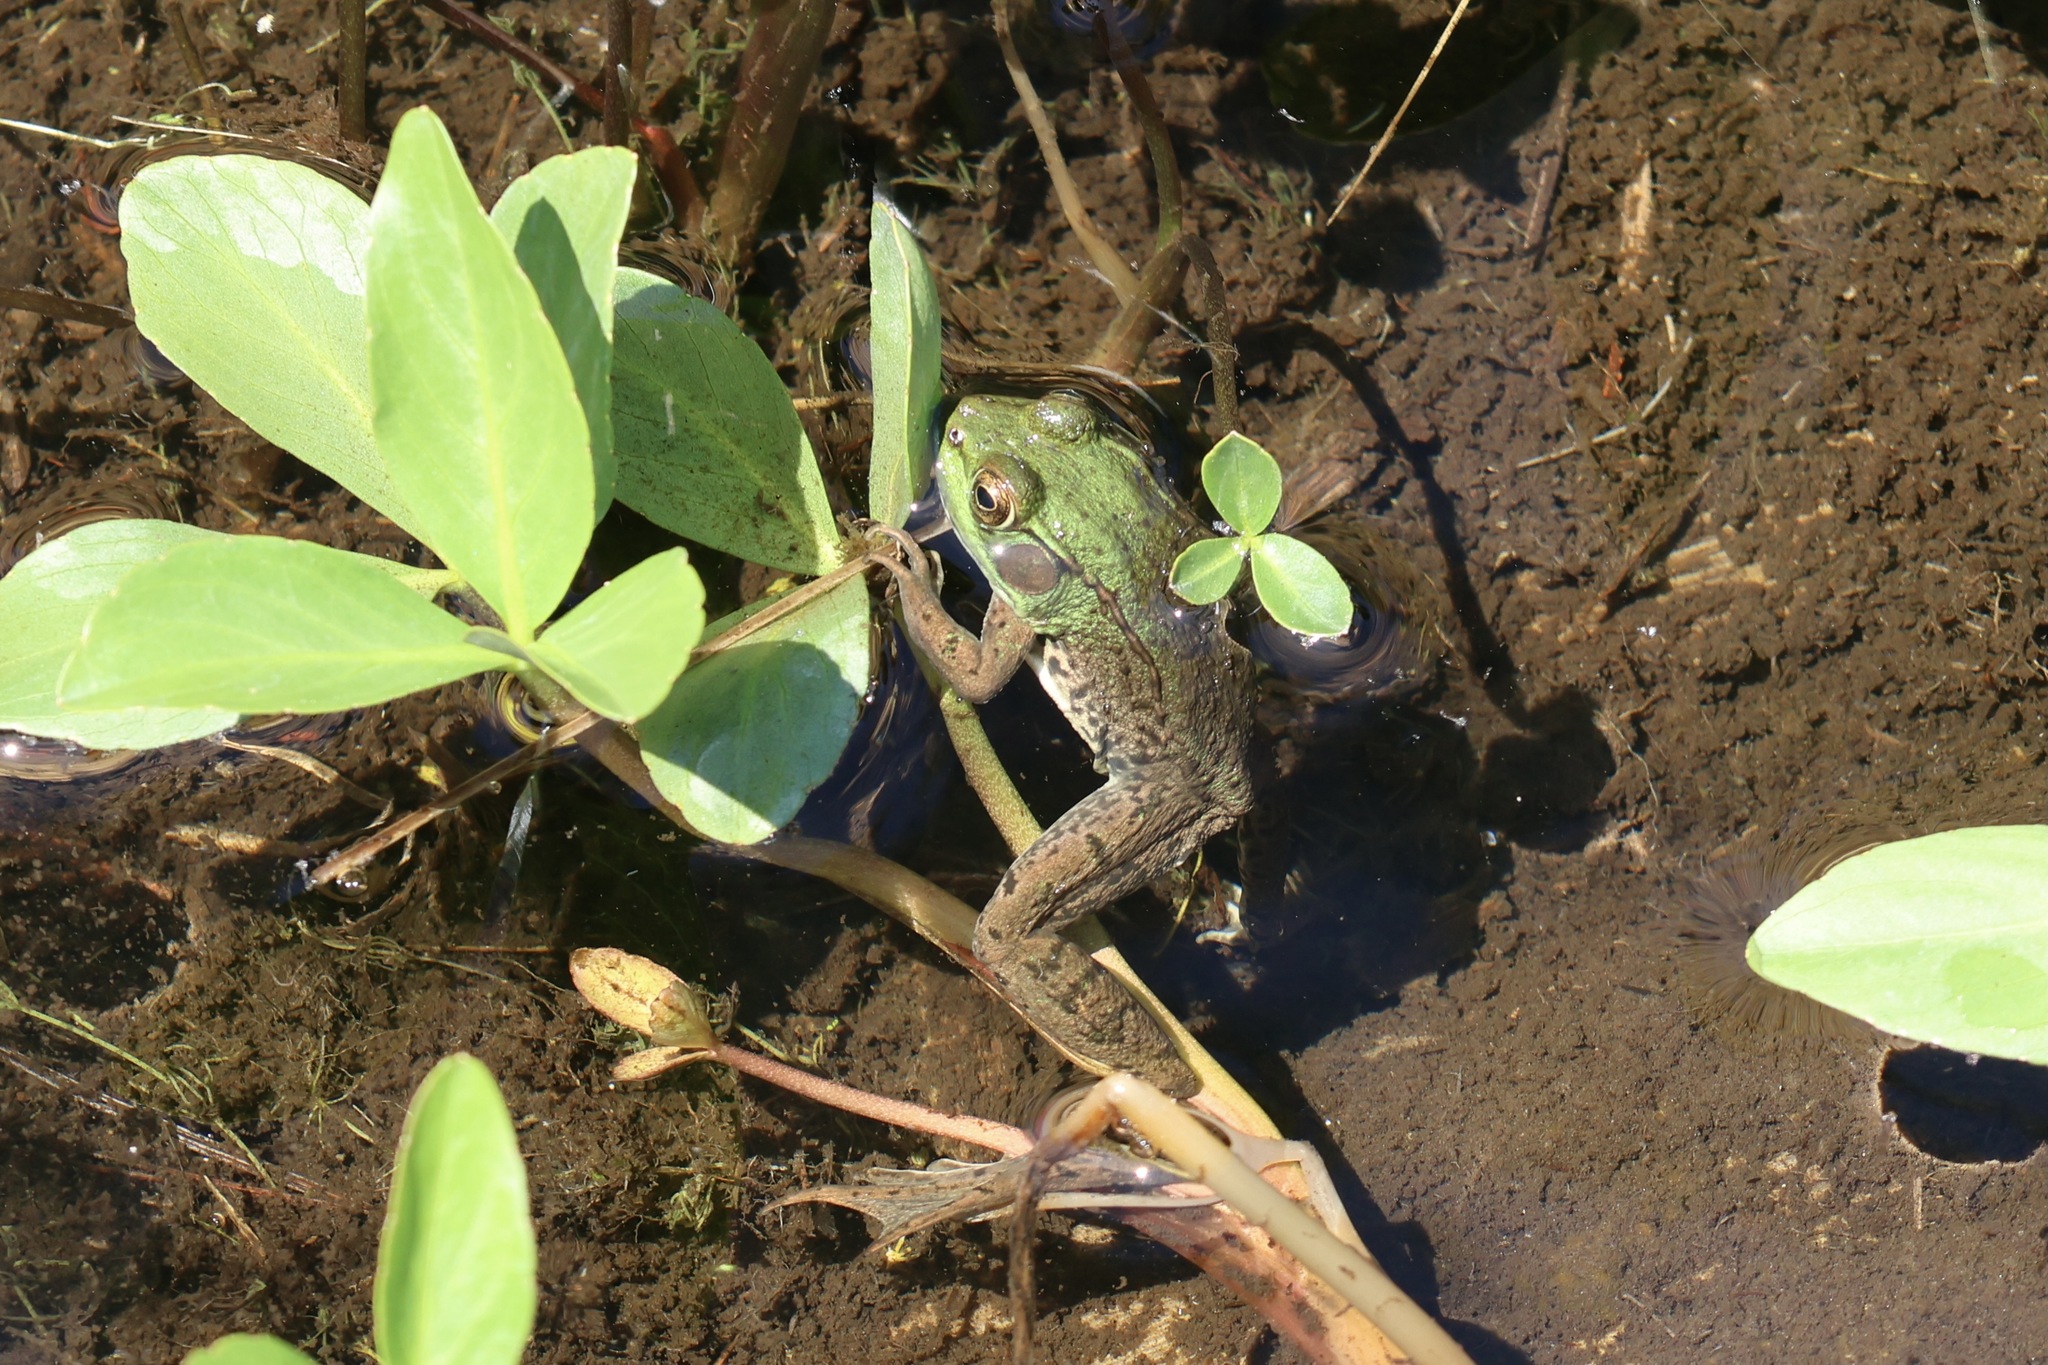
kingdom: Animalia
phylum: Chordata
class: Amphibia
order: Anura
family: Ranidae
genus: Lithobates
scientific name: Lithobates clamitans
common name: Green frog
